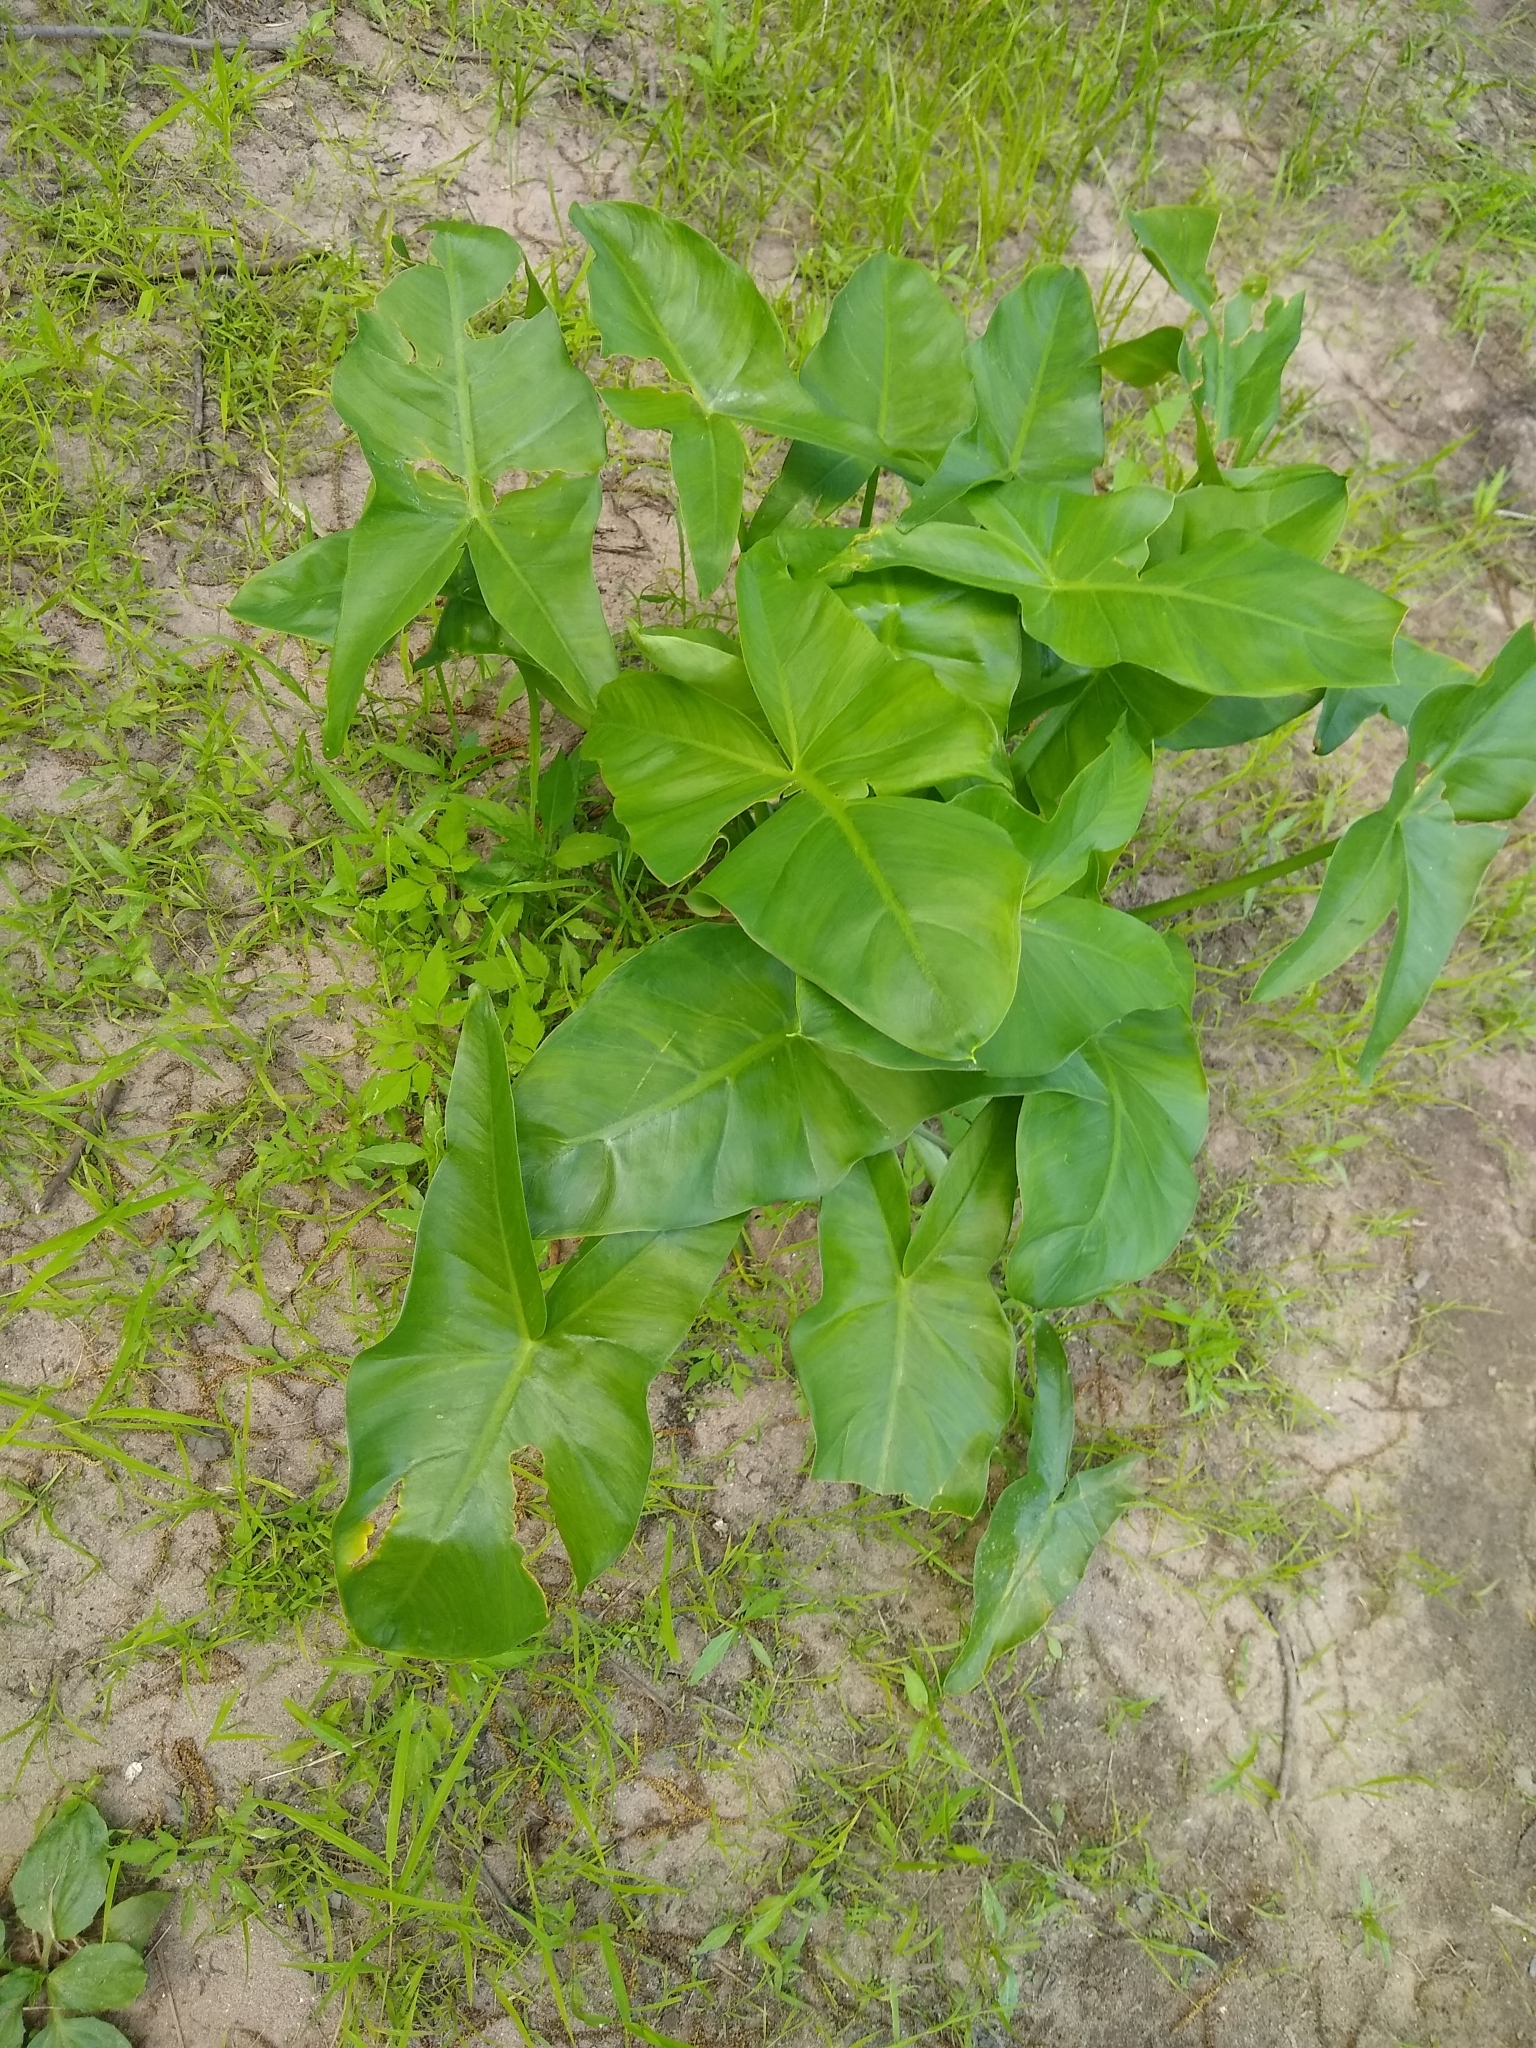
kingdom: Plantae
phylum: Tracheophyta
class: Liliopsida
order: Alismatales
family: Araceae
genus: Peltandra
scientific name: Peltandra virginica
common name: Arrow arum
